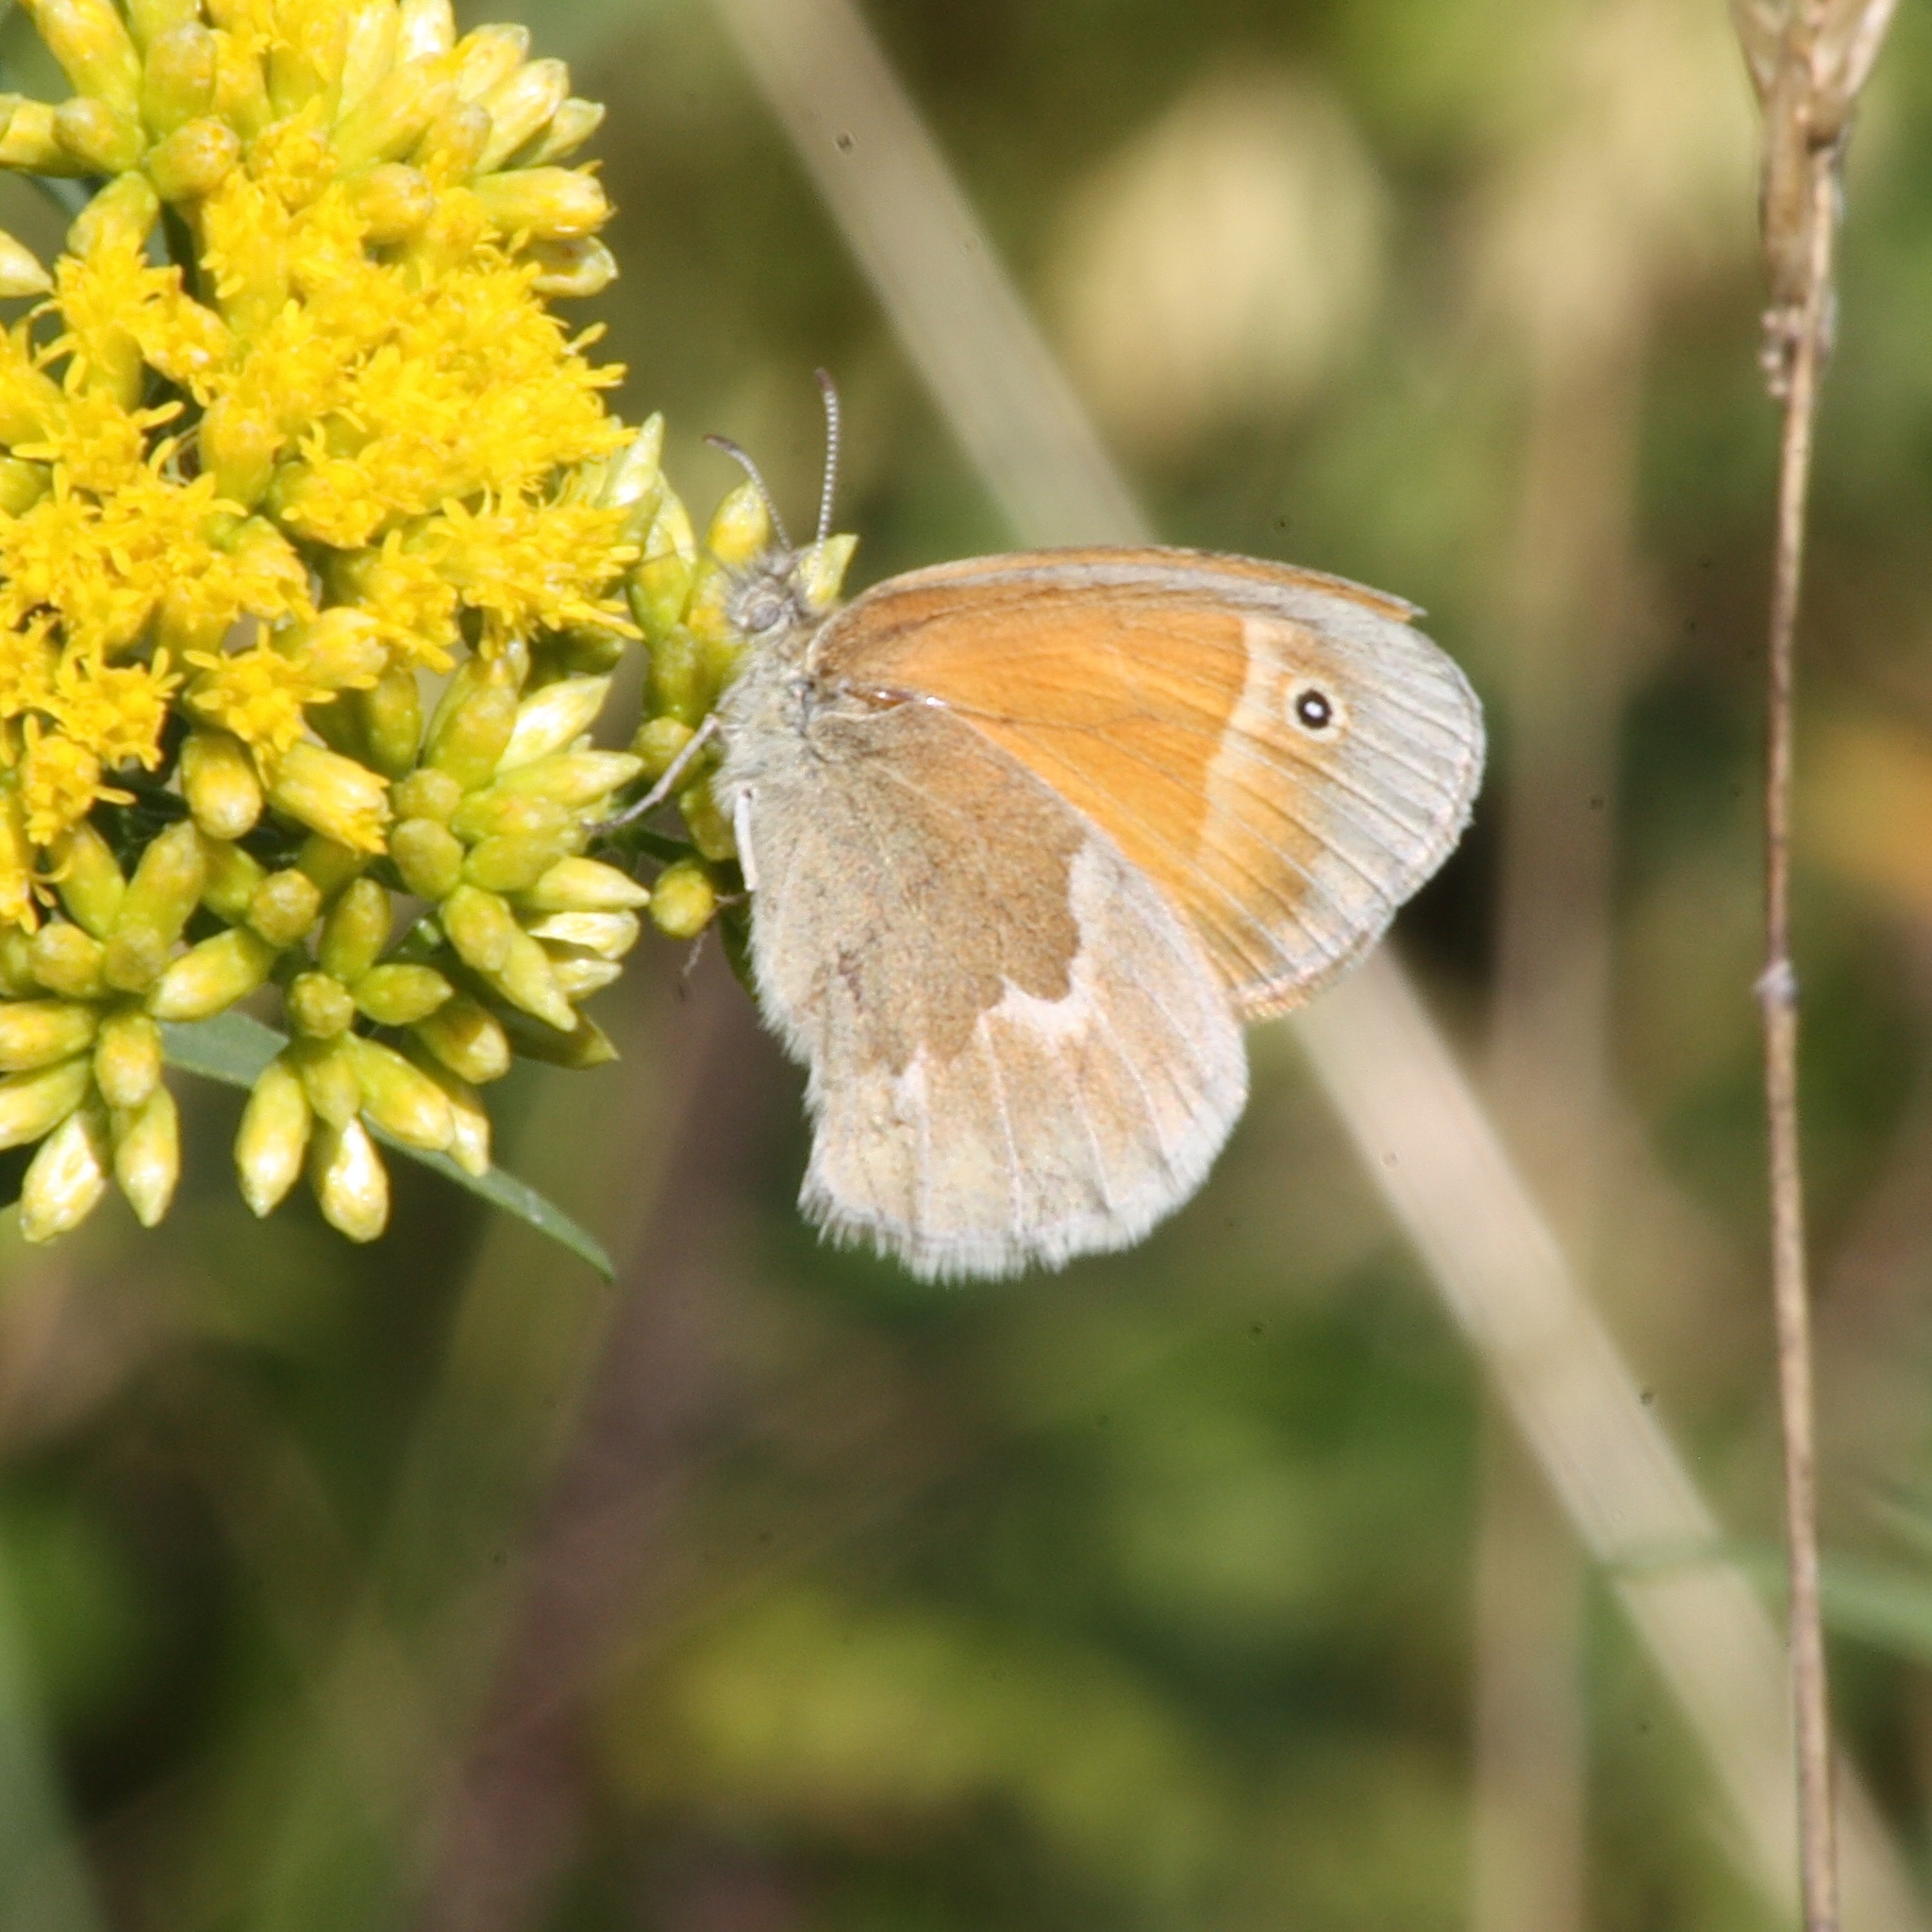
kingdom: Animalia
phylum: Arthropoda
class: Insecta
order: Lepidoptera
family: Nymphalidae
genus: Coenonympha
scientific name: Coenonympha california
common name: Common ringlet
